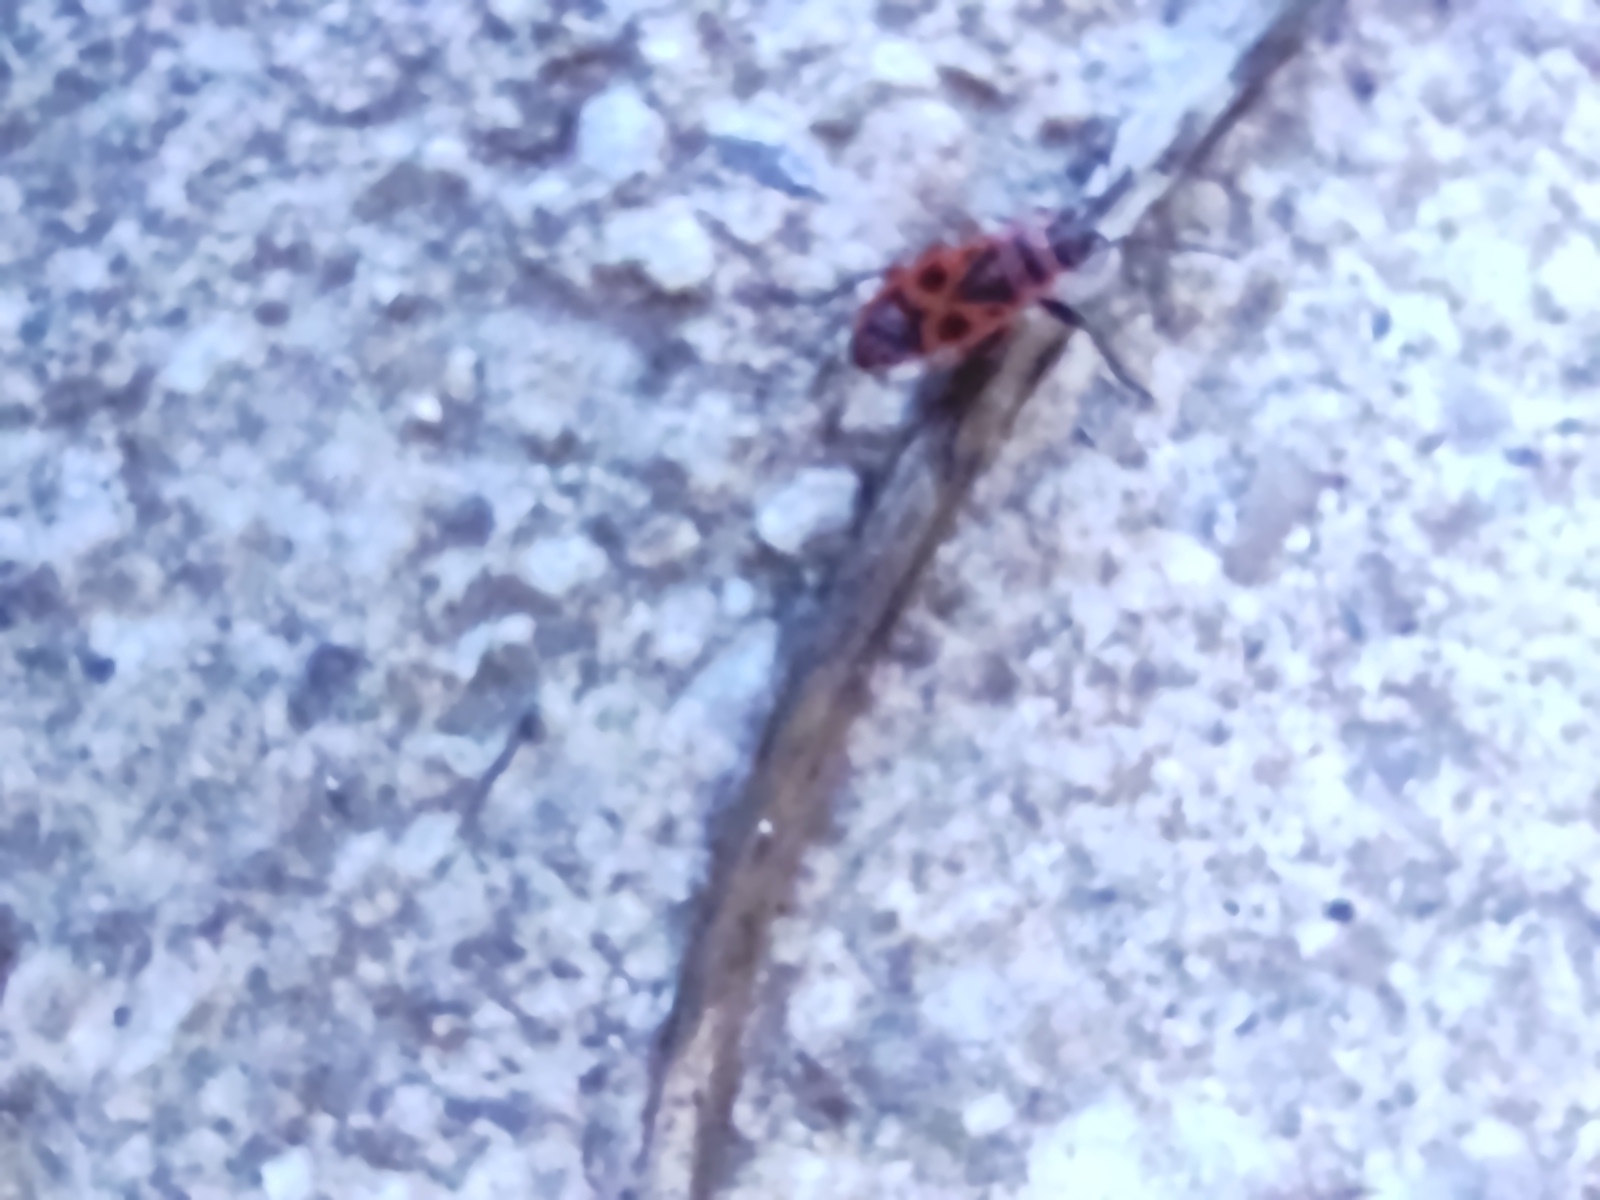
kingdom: Animalia
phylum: Arthropoda
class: Insecta
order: Hemiptera
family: Pyrrhocoridae
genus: Pyrrhocoris
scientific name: Pyrrhocoris apterus
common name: Firebug
